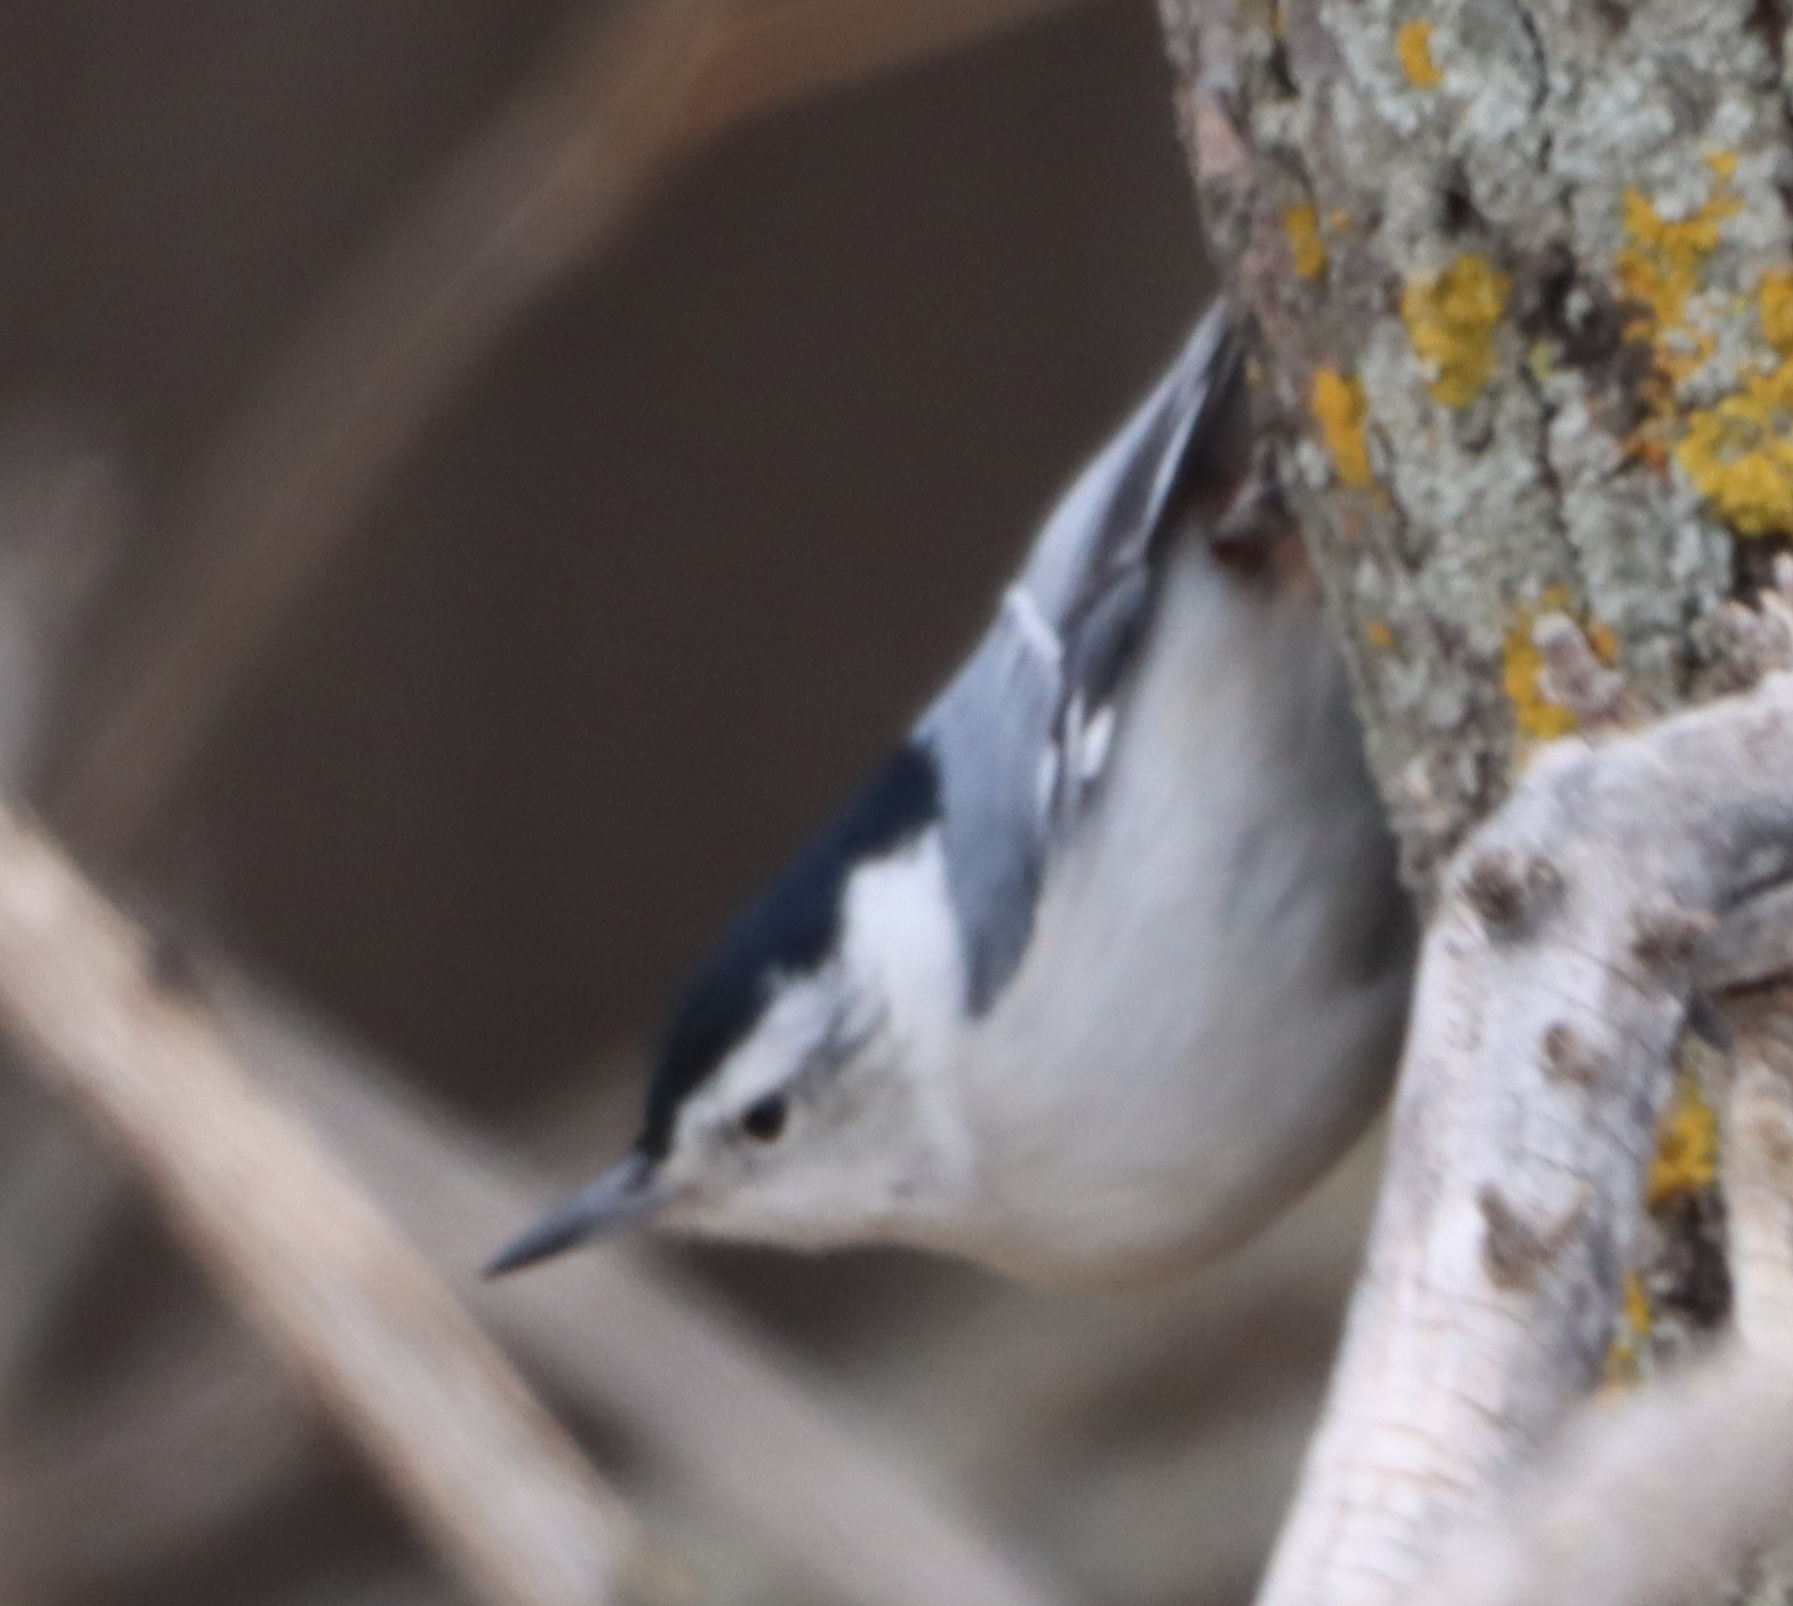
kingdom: Animalia
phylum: Chordata
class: Aves
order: Passeriformes
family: Sittidae
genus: Sitta
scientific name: Sitta carolinensis
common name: White-breasted nuthatch
